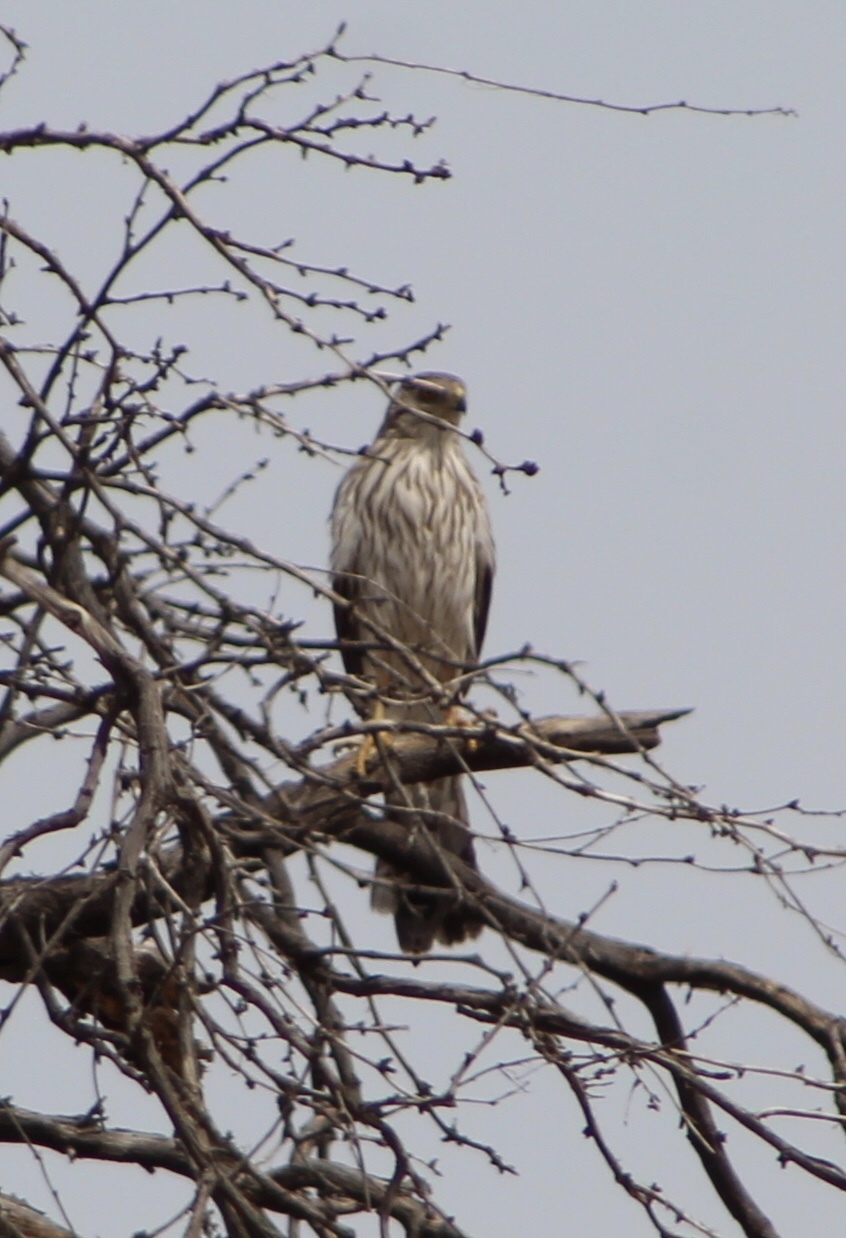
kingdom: Animalia
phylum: Chordata
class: Aves
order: Accipitriformes
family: Accipitridae
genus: Accipiter
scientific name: Accipiter cooperii
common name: Cooper's hawk
